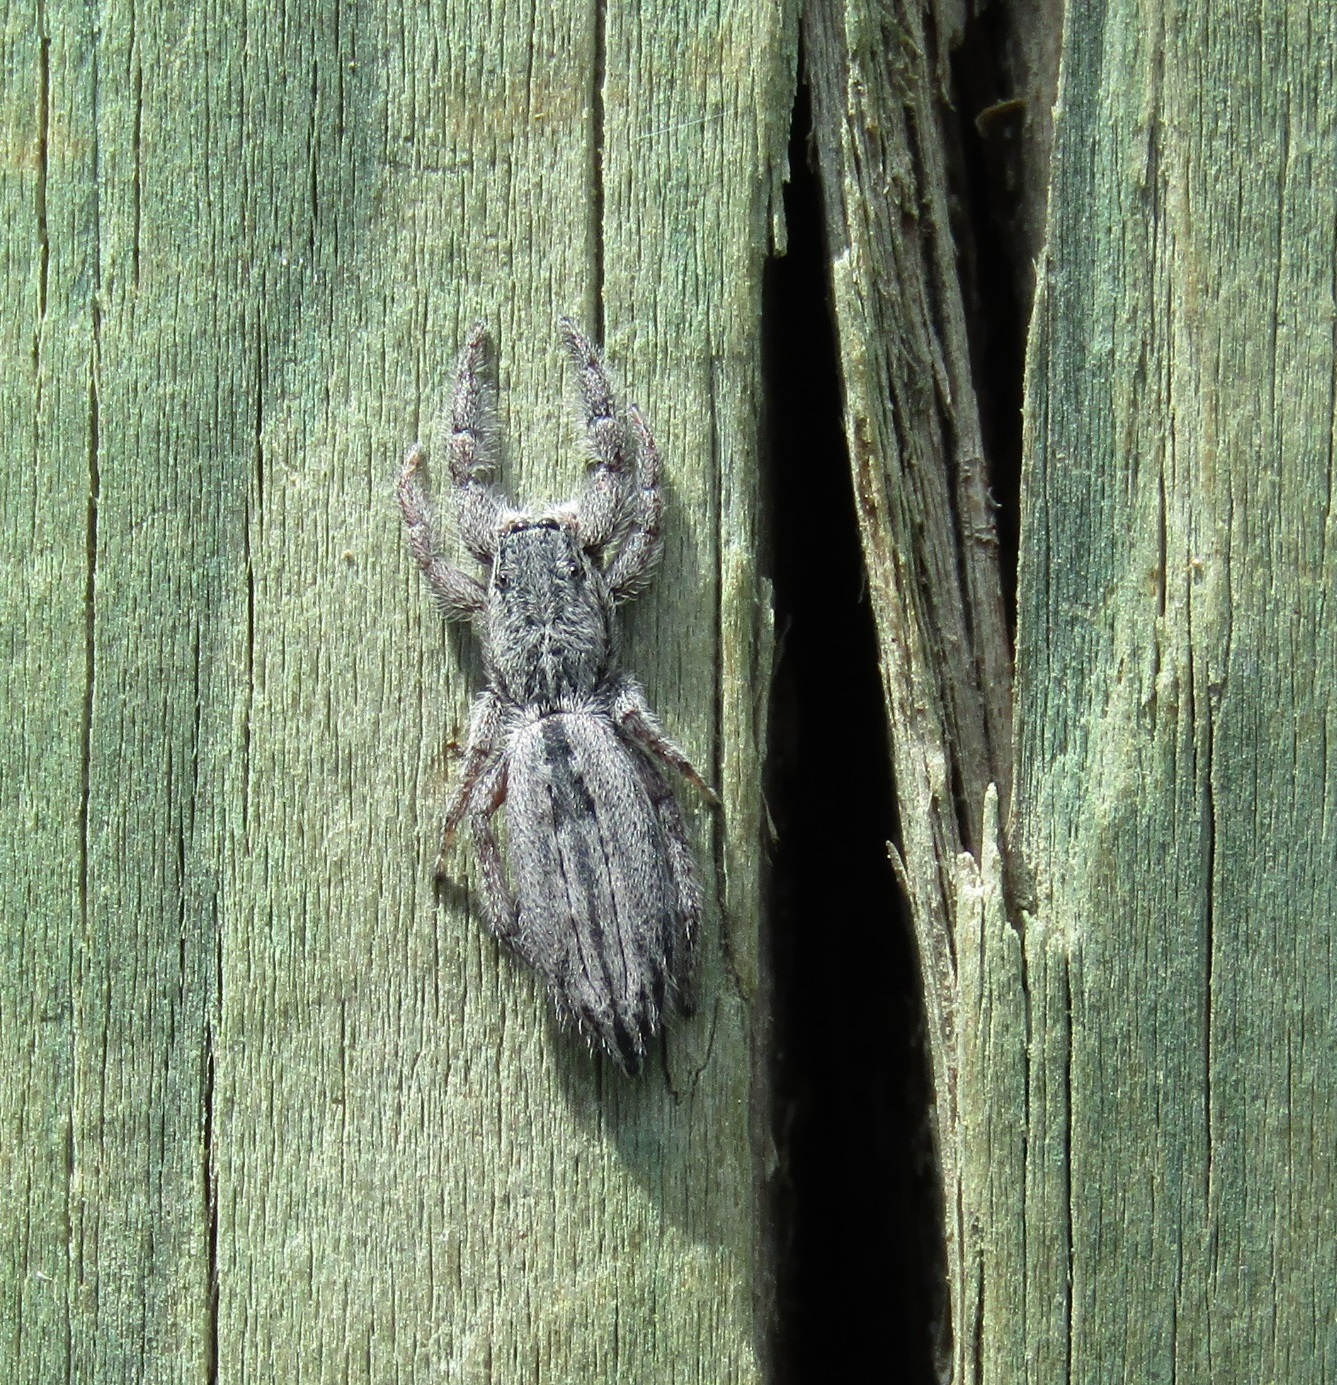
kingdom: Animalia
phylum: Arthropoda
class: Arachnida
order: Araneae
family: Salticidae
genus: Holoplatys
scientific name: Holoplatys apressus
